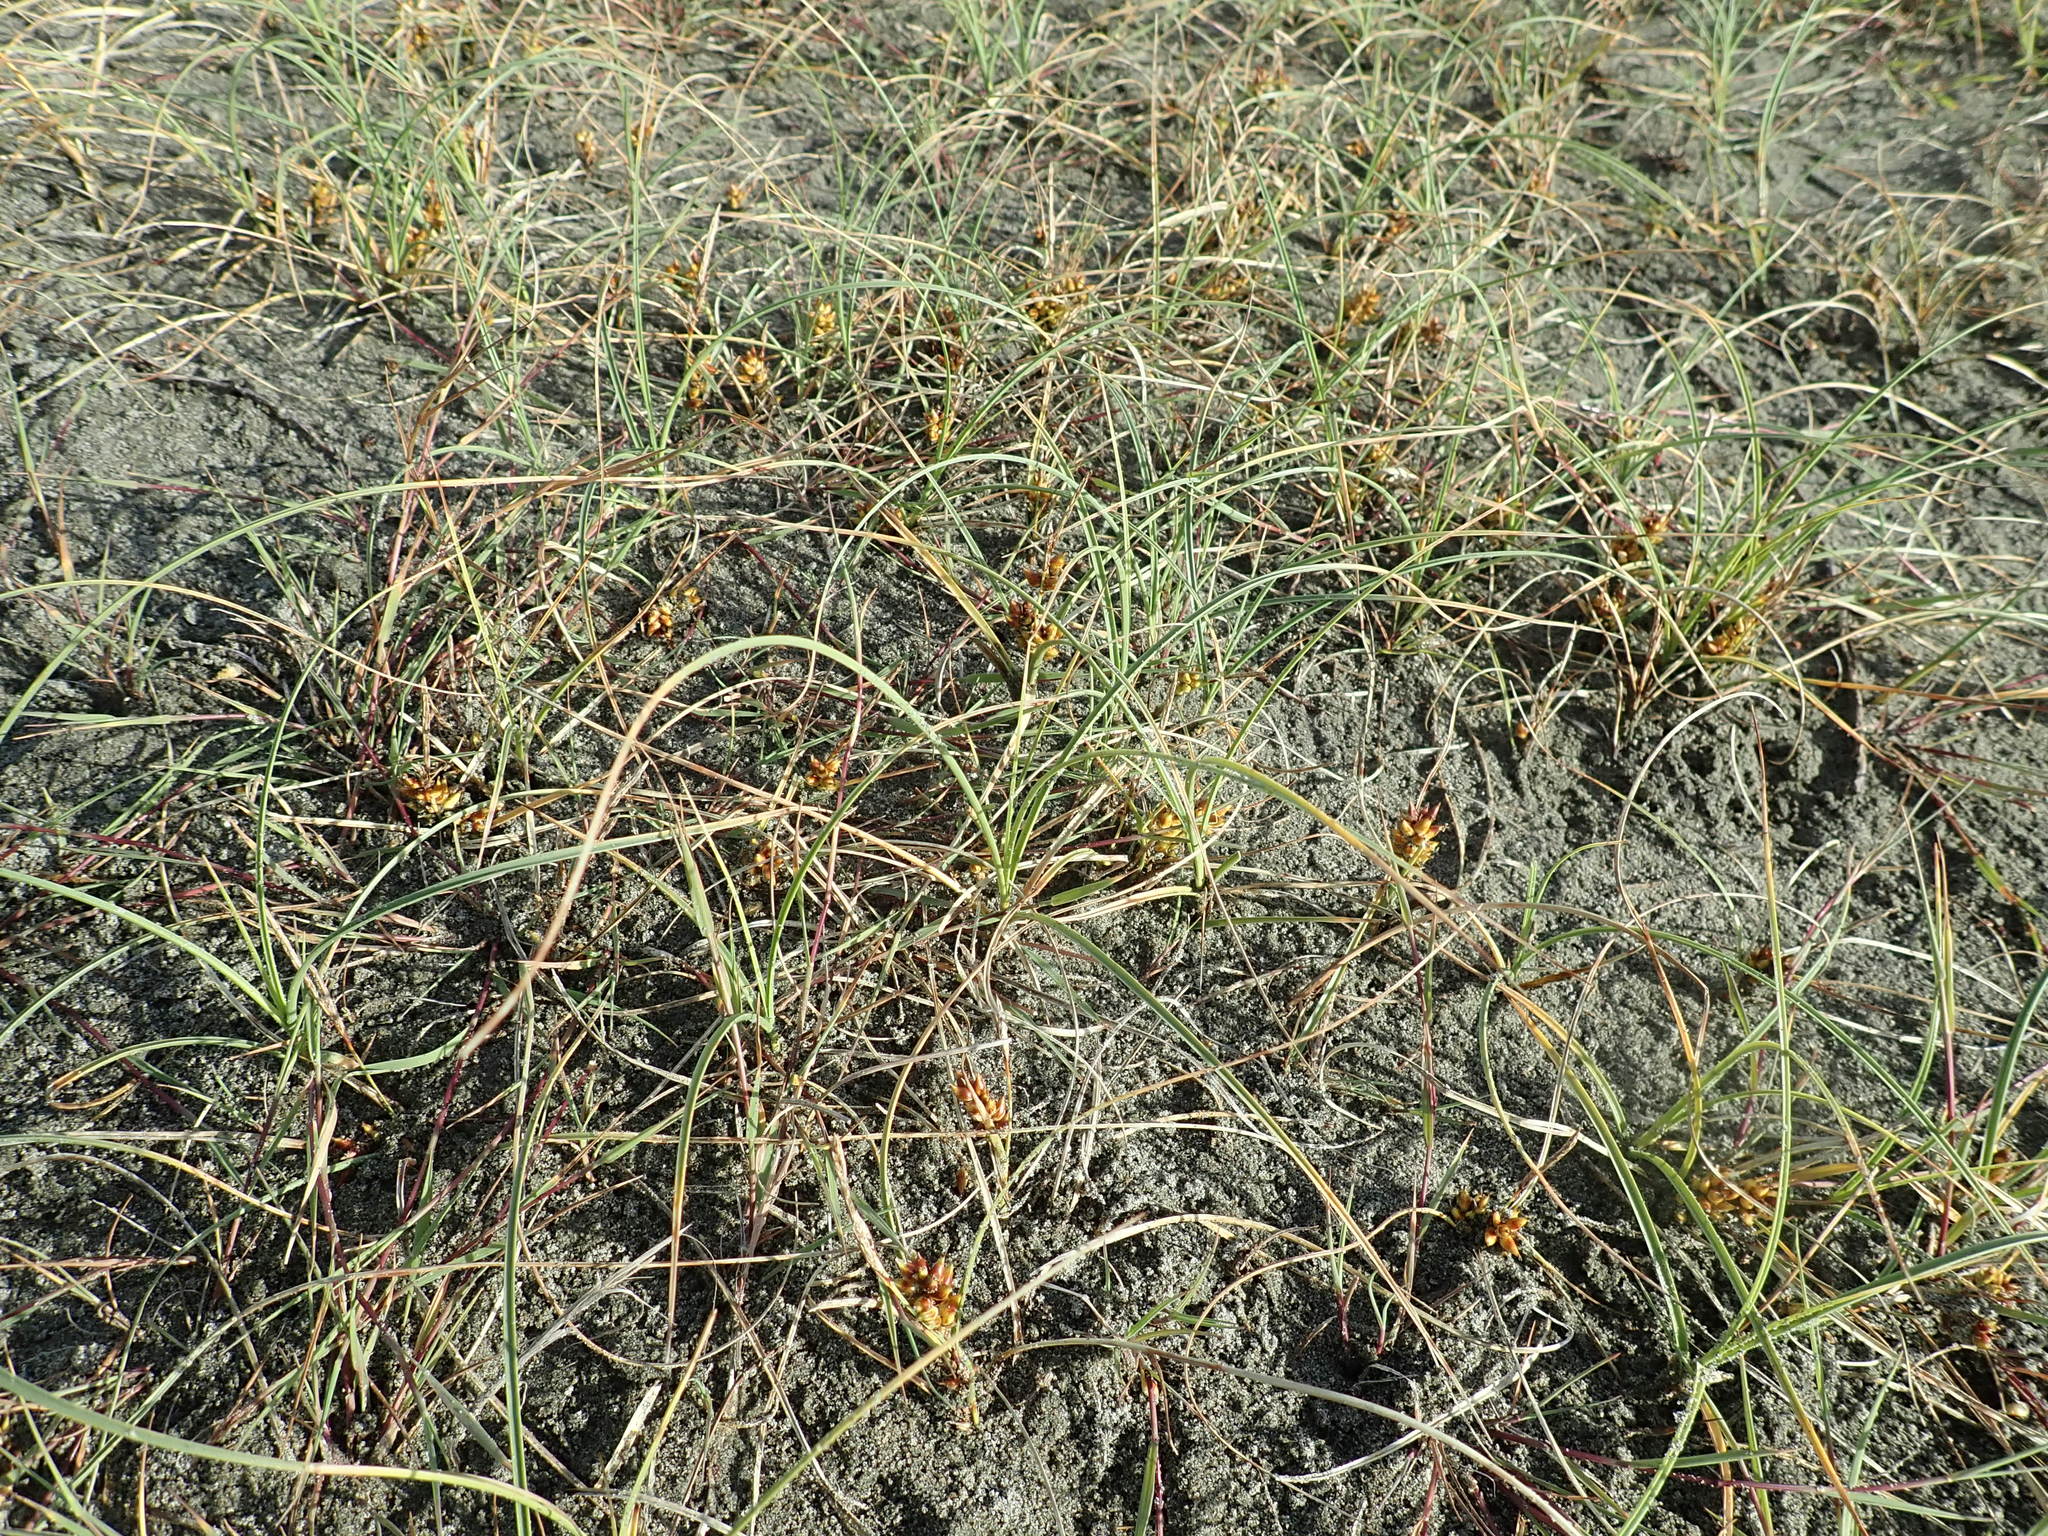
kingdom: Plantae
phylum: Tracheophyta
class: Liliopsida
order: Poales
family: Cyperaceae
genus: Carex
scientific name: Carex pumila
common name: Dwarf sedge
